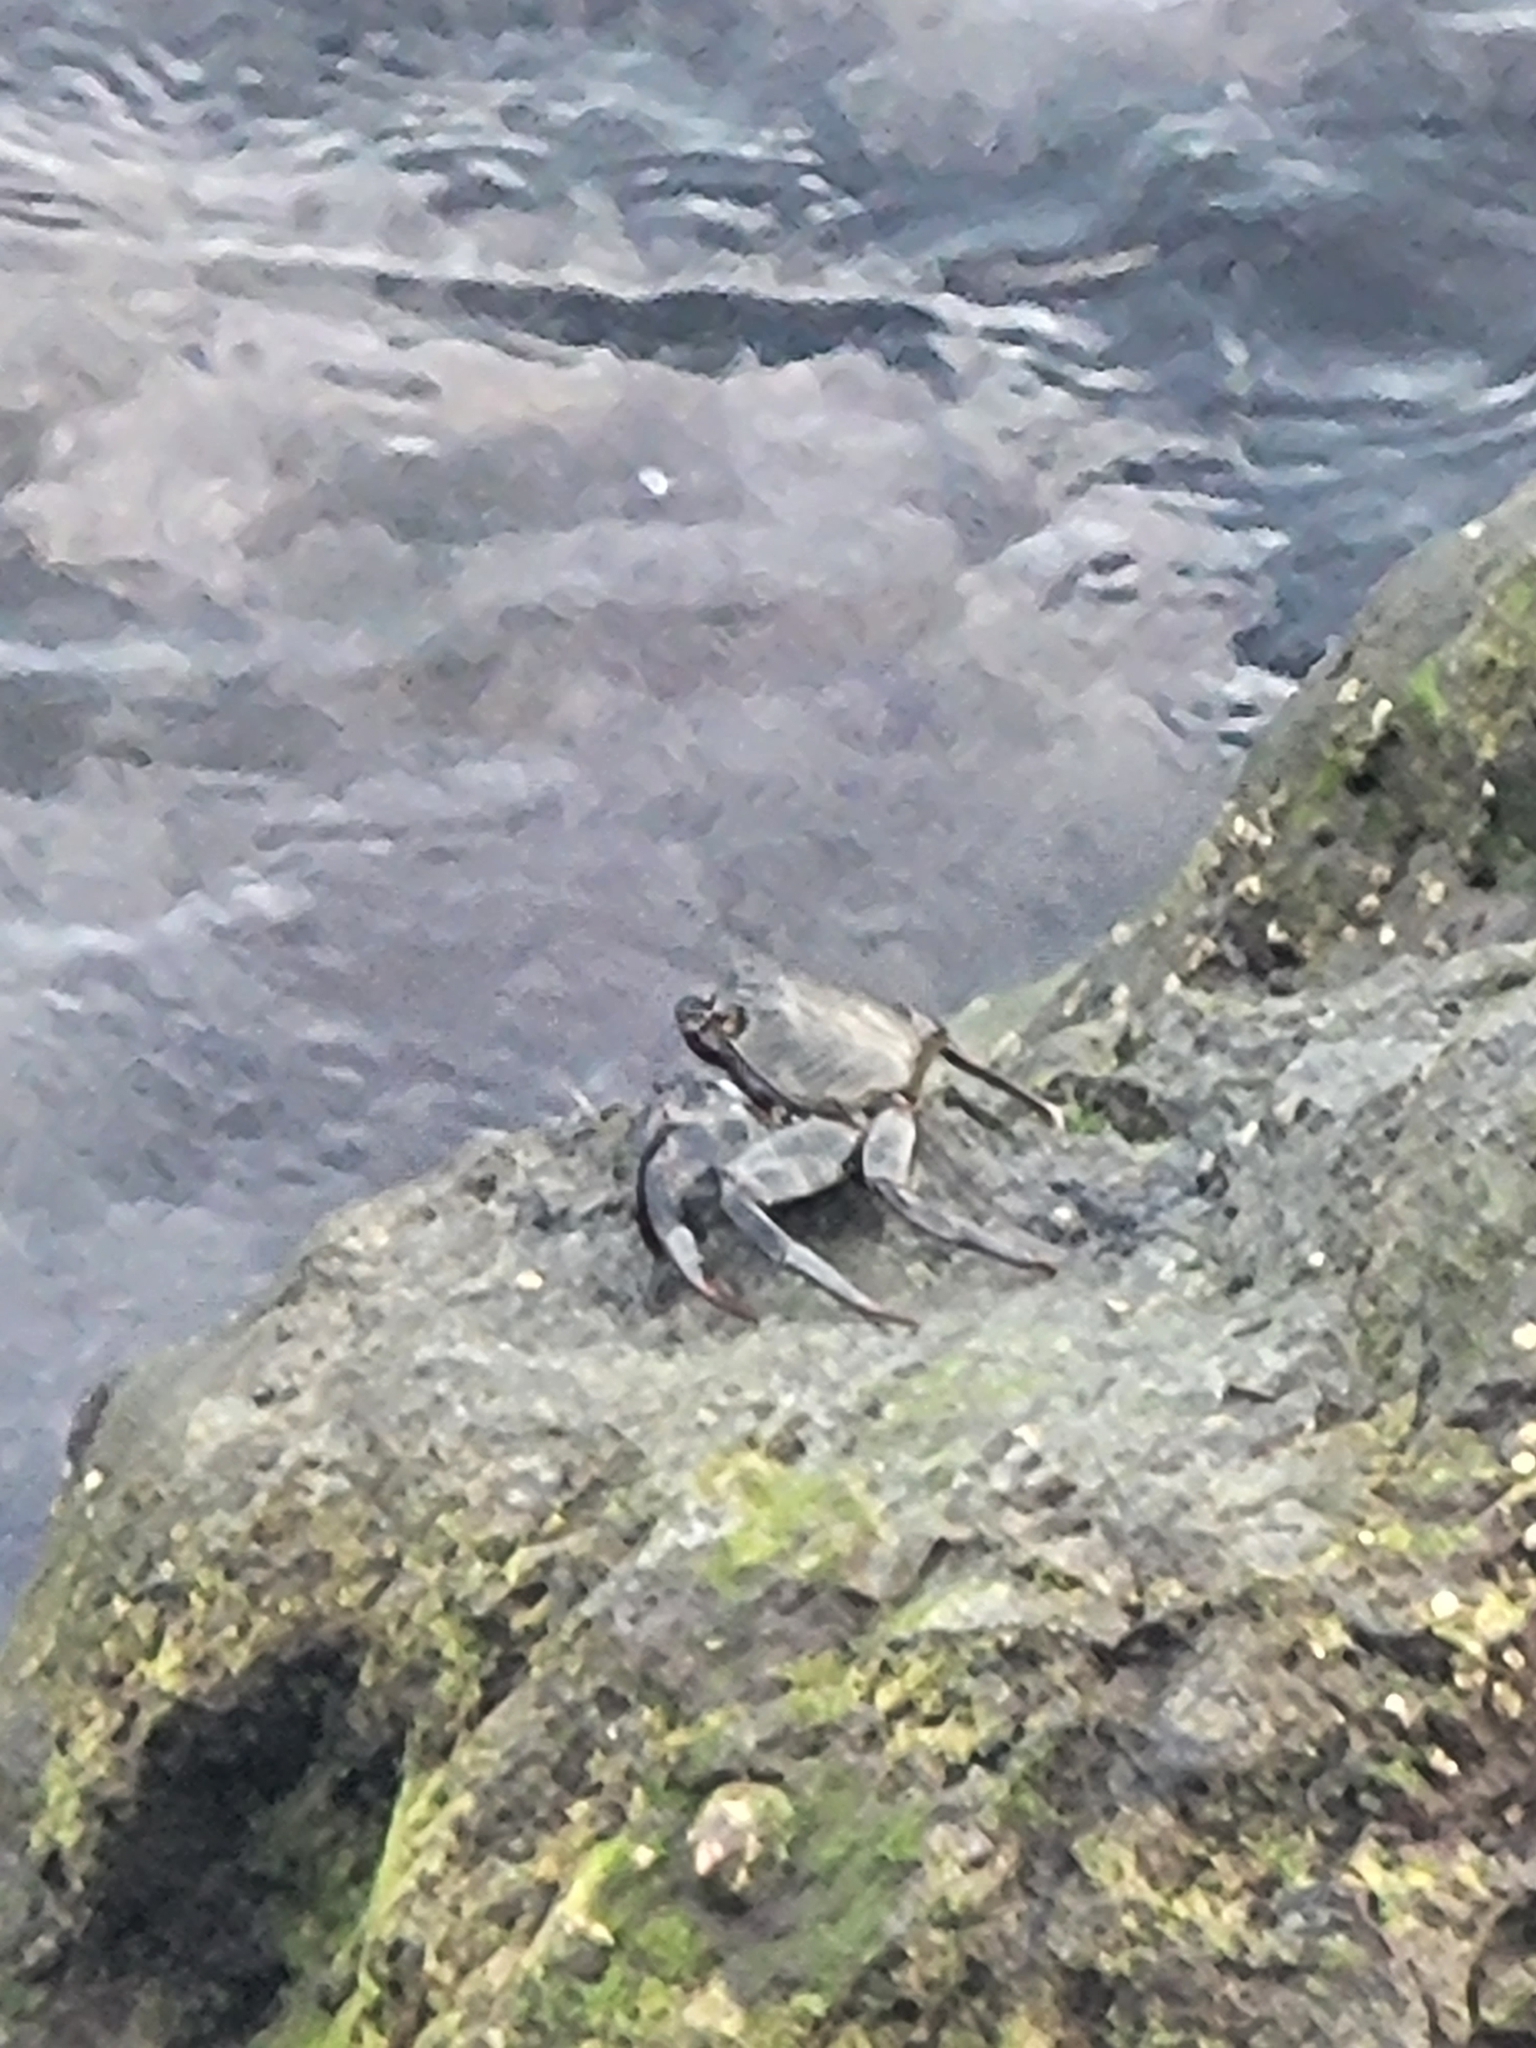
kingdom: Animalia
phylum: Arthropoda
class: Malacostraca
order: Decapoda
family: Grapsidae
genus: Grapsus
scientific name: Grapsus adscensionis
